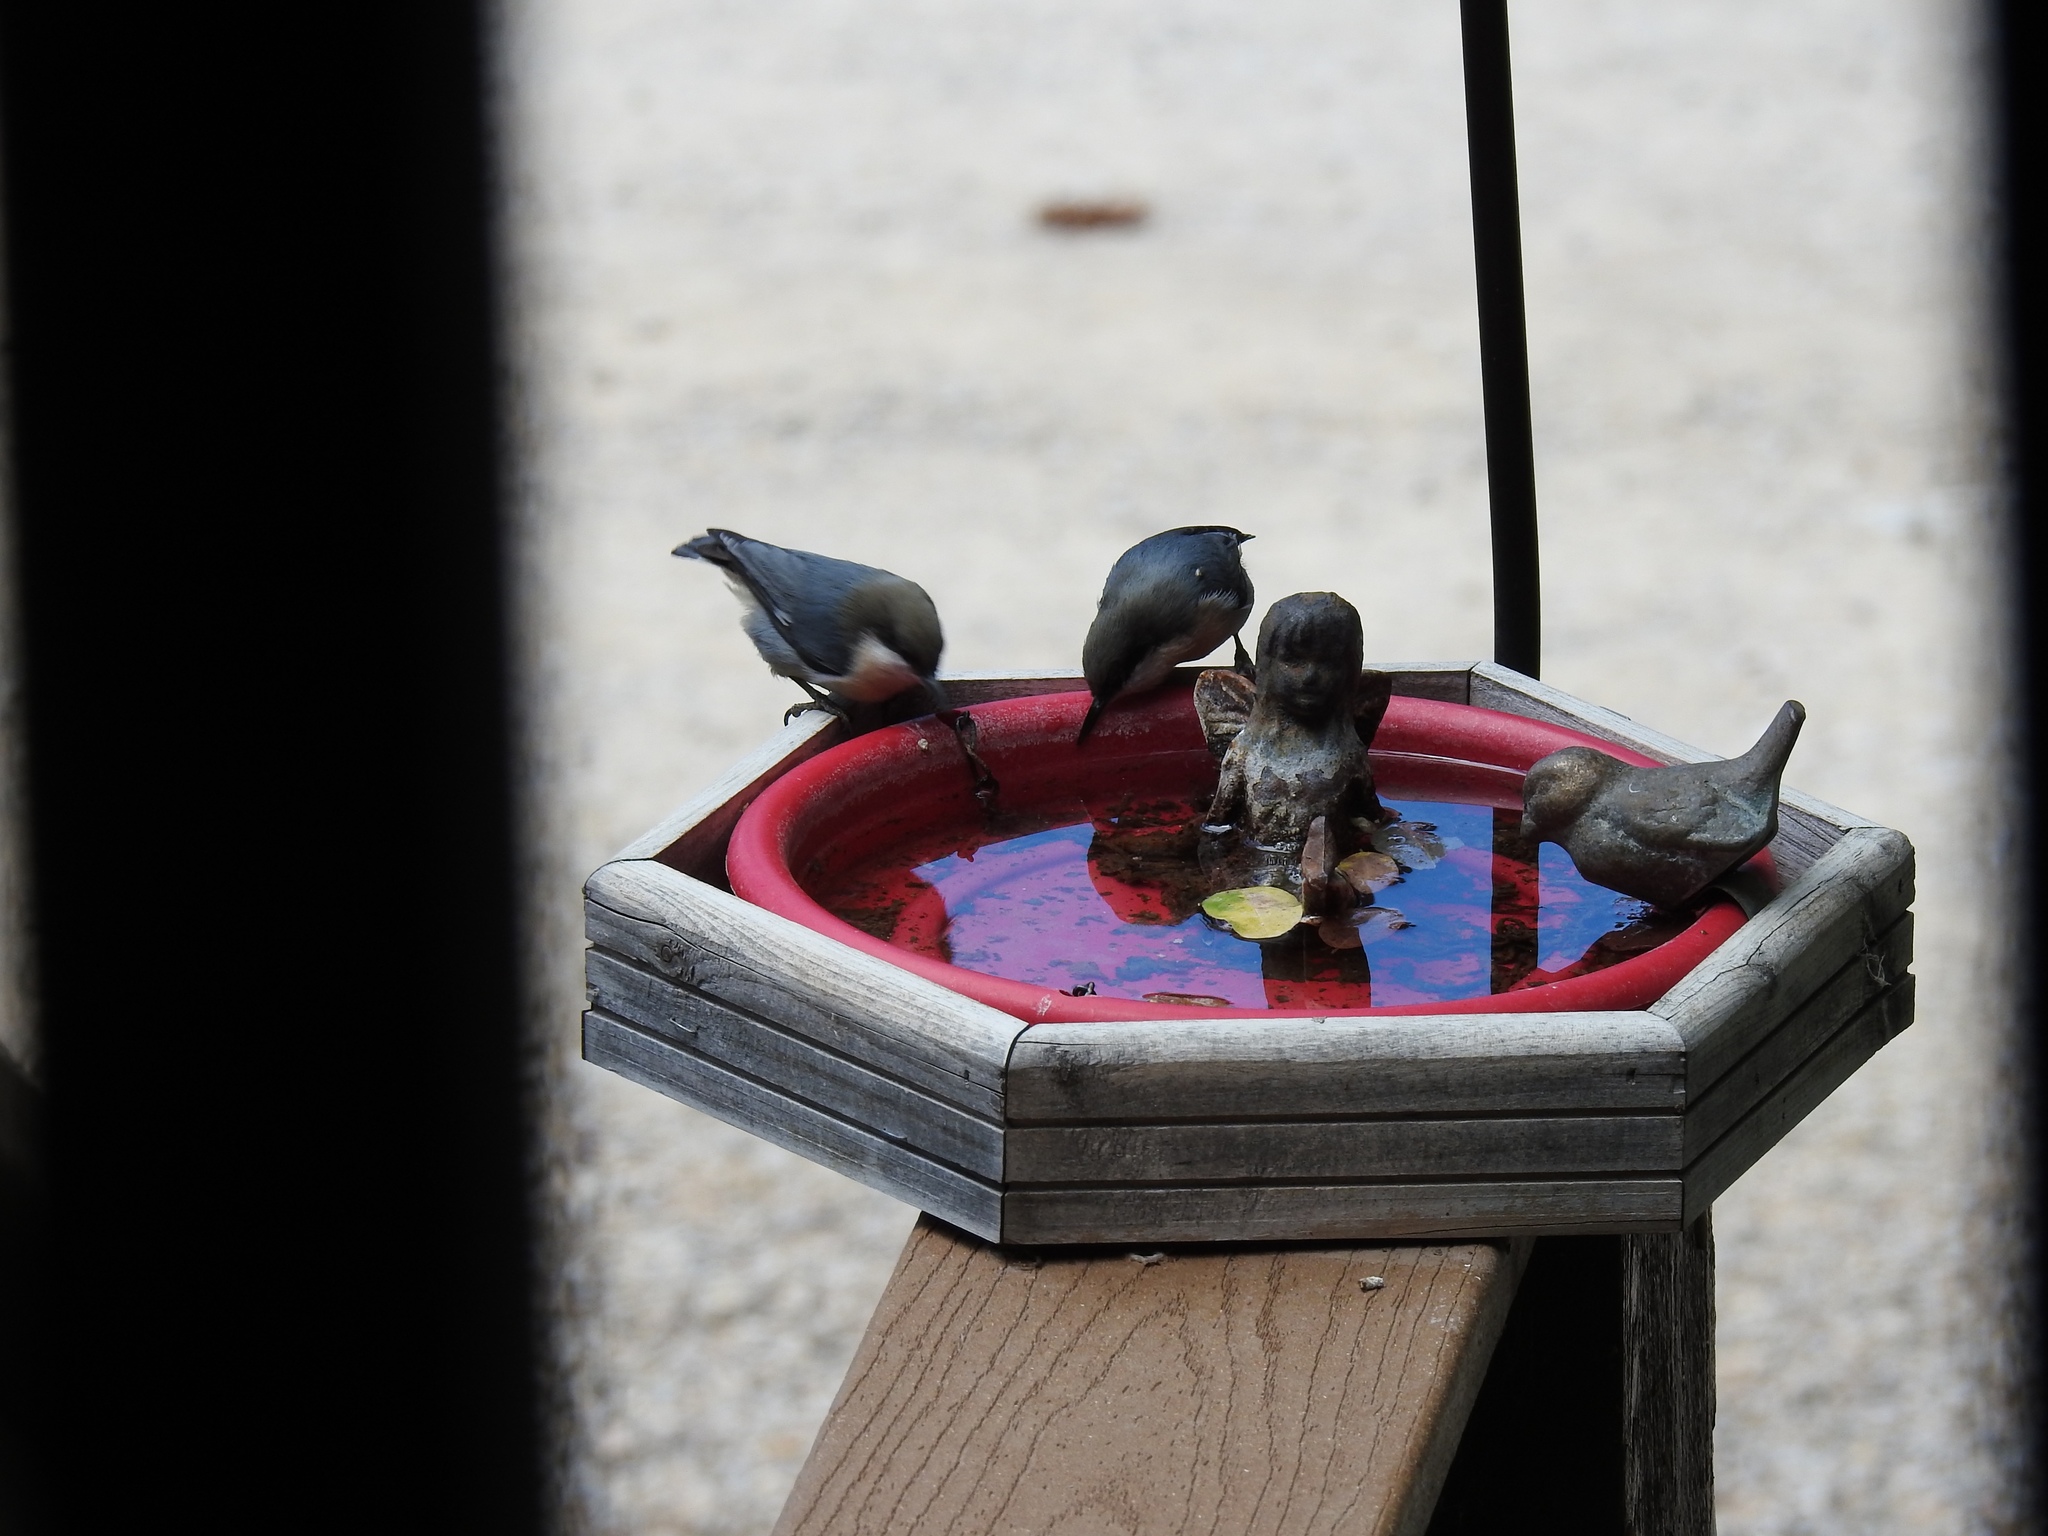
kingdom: Animalia
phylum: Chordata
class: Aves
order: Passeriformes
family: Sittidae
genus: Sitta
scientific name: Sitta pygmaea
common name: Pygmy nuthatch
